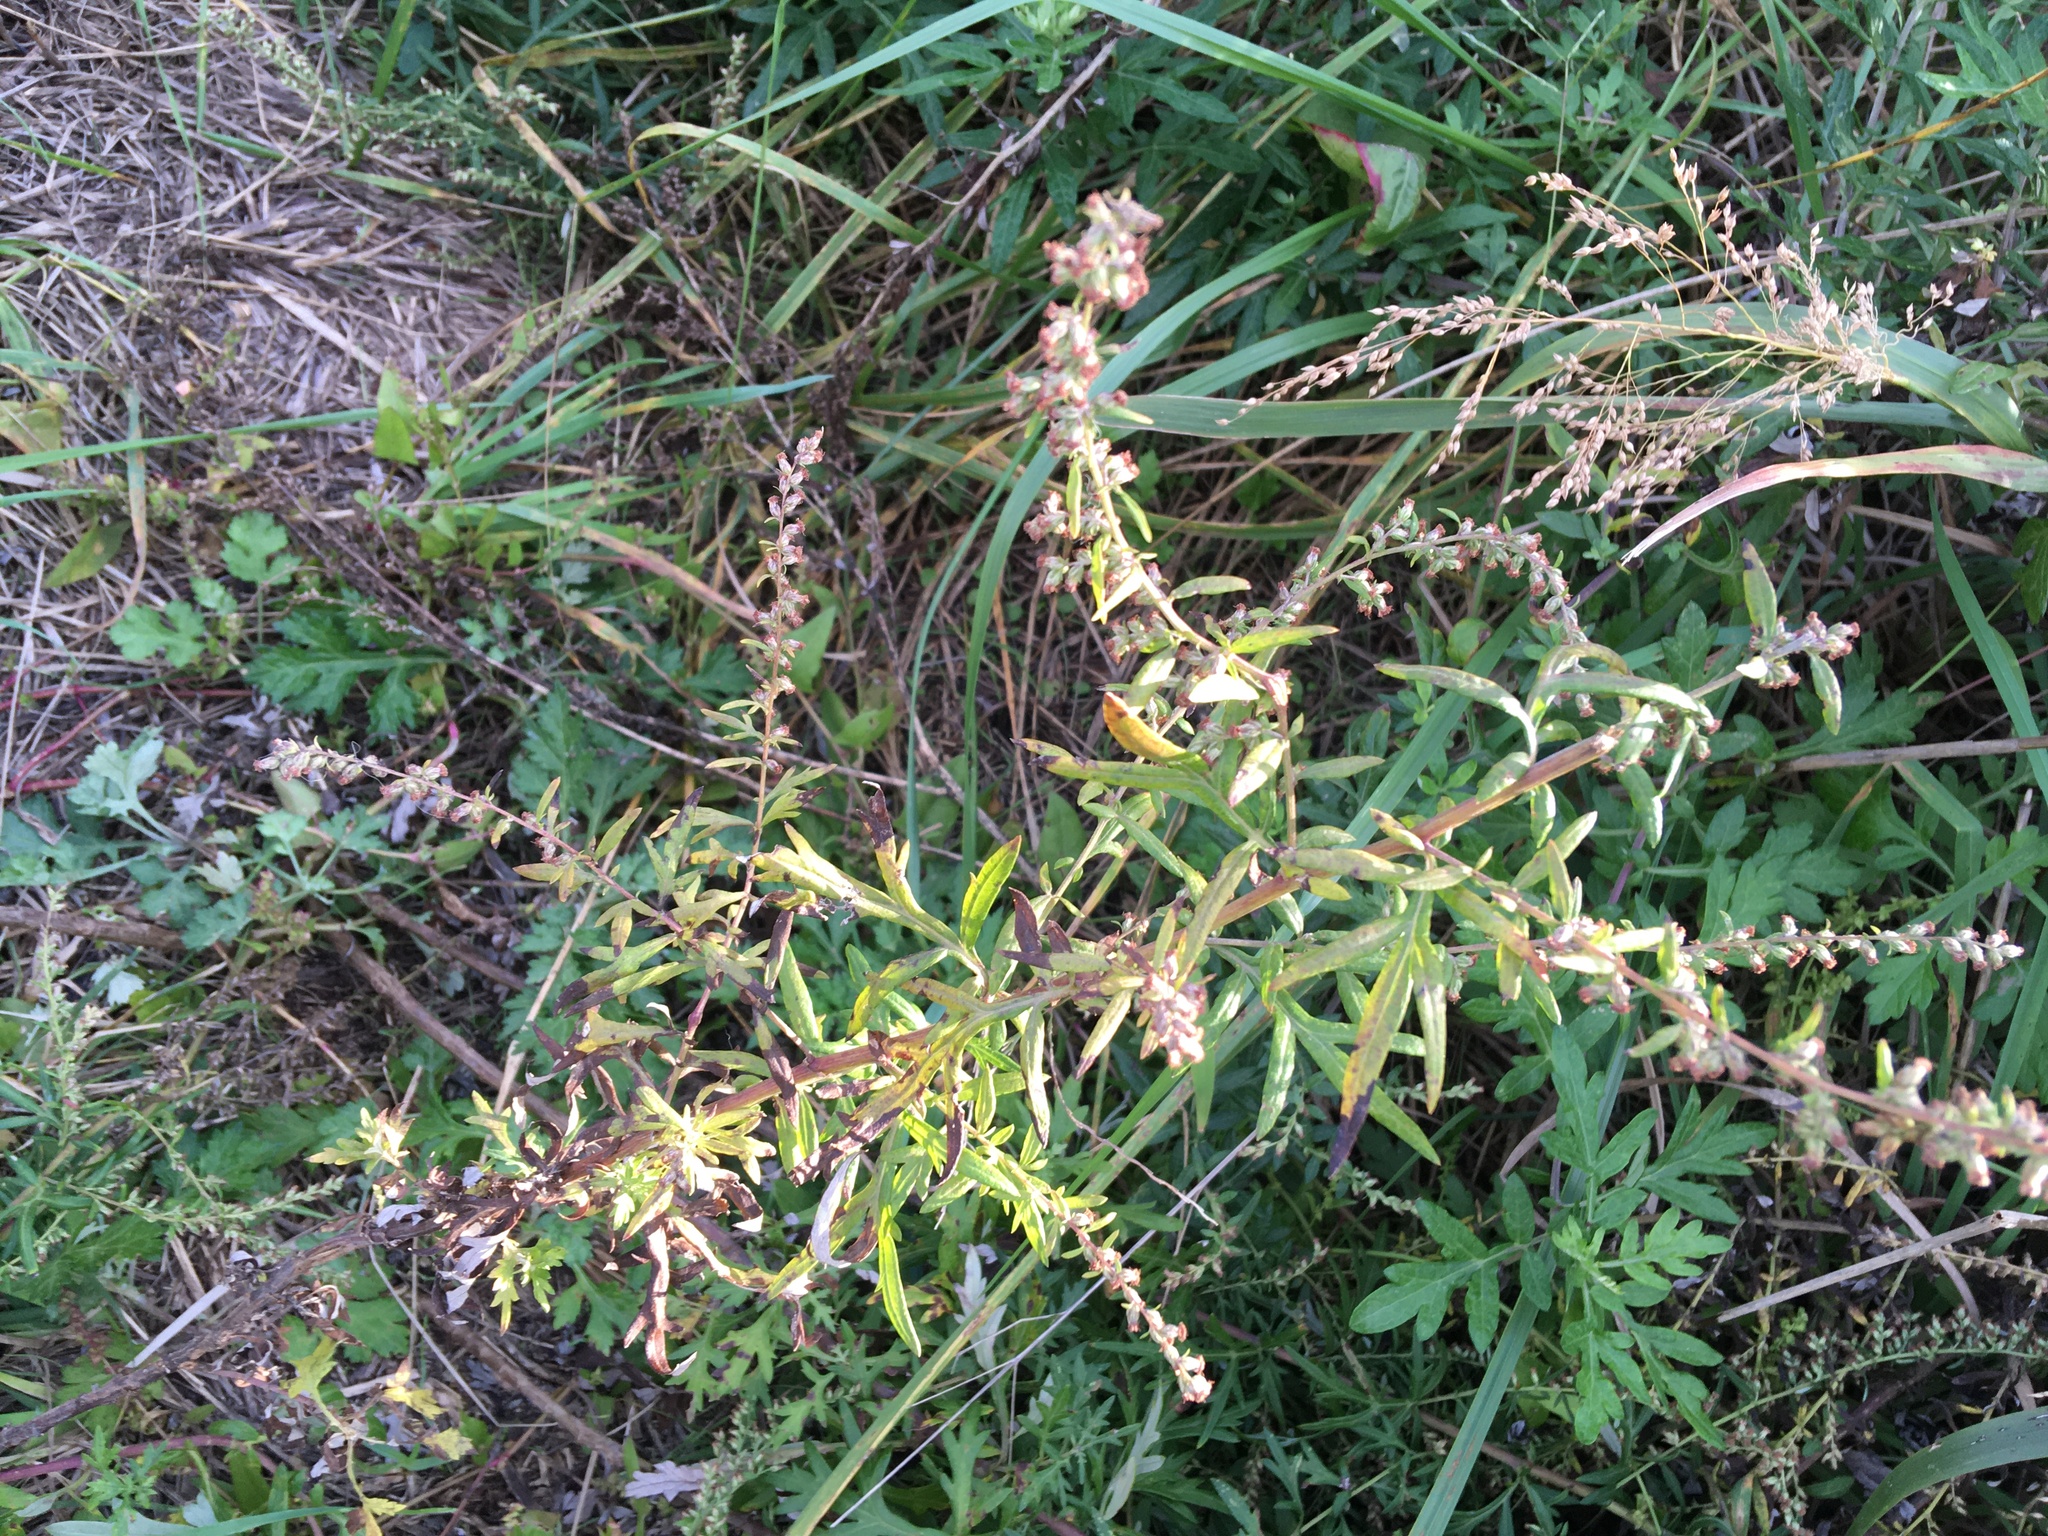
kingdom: Plantae
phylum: Tracheophyta
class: Magnoliopsida
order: Asterales
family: Asteraceae
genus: Artemisia
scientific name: Artemisia vulgaris
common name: Mugwort
